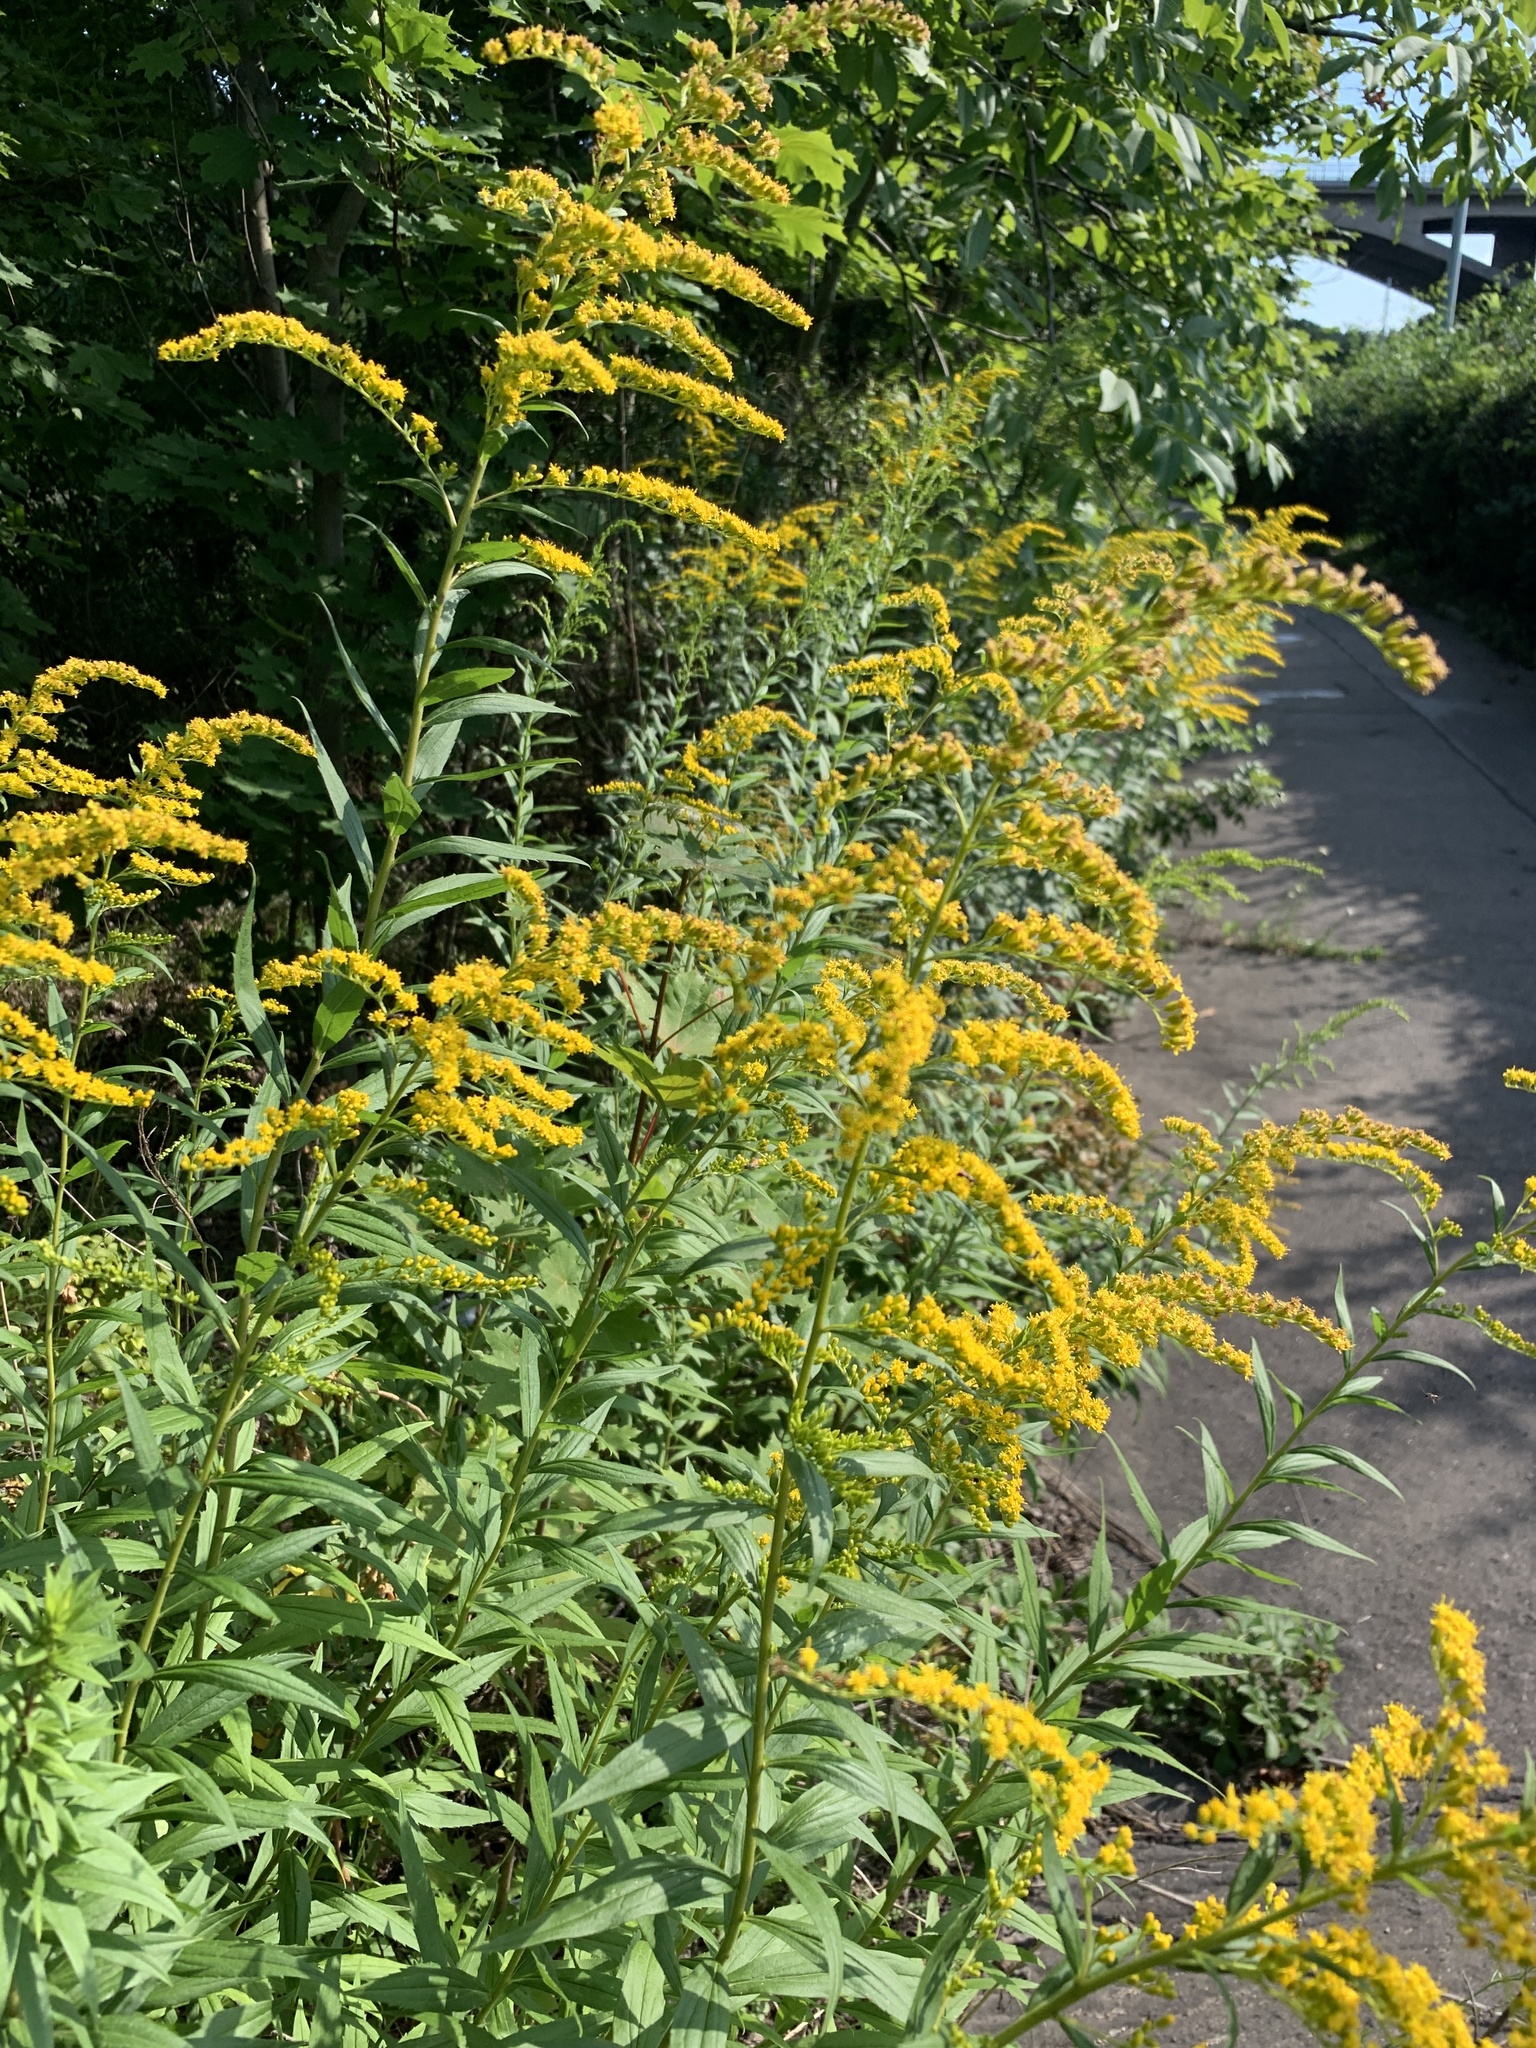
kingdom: Plantae
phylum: Tracheophyta
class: Magnoliopsida
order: Asterales
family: Asteraceae
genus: Solidago
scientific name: Solidago canadensis
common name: Canada goldenrod
